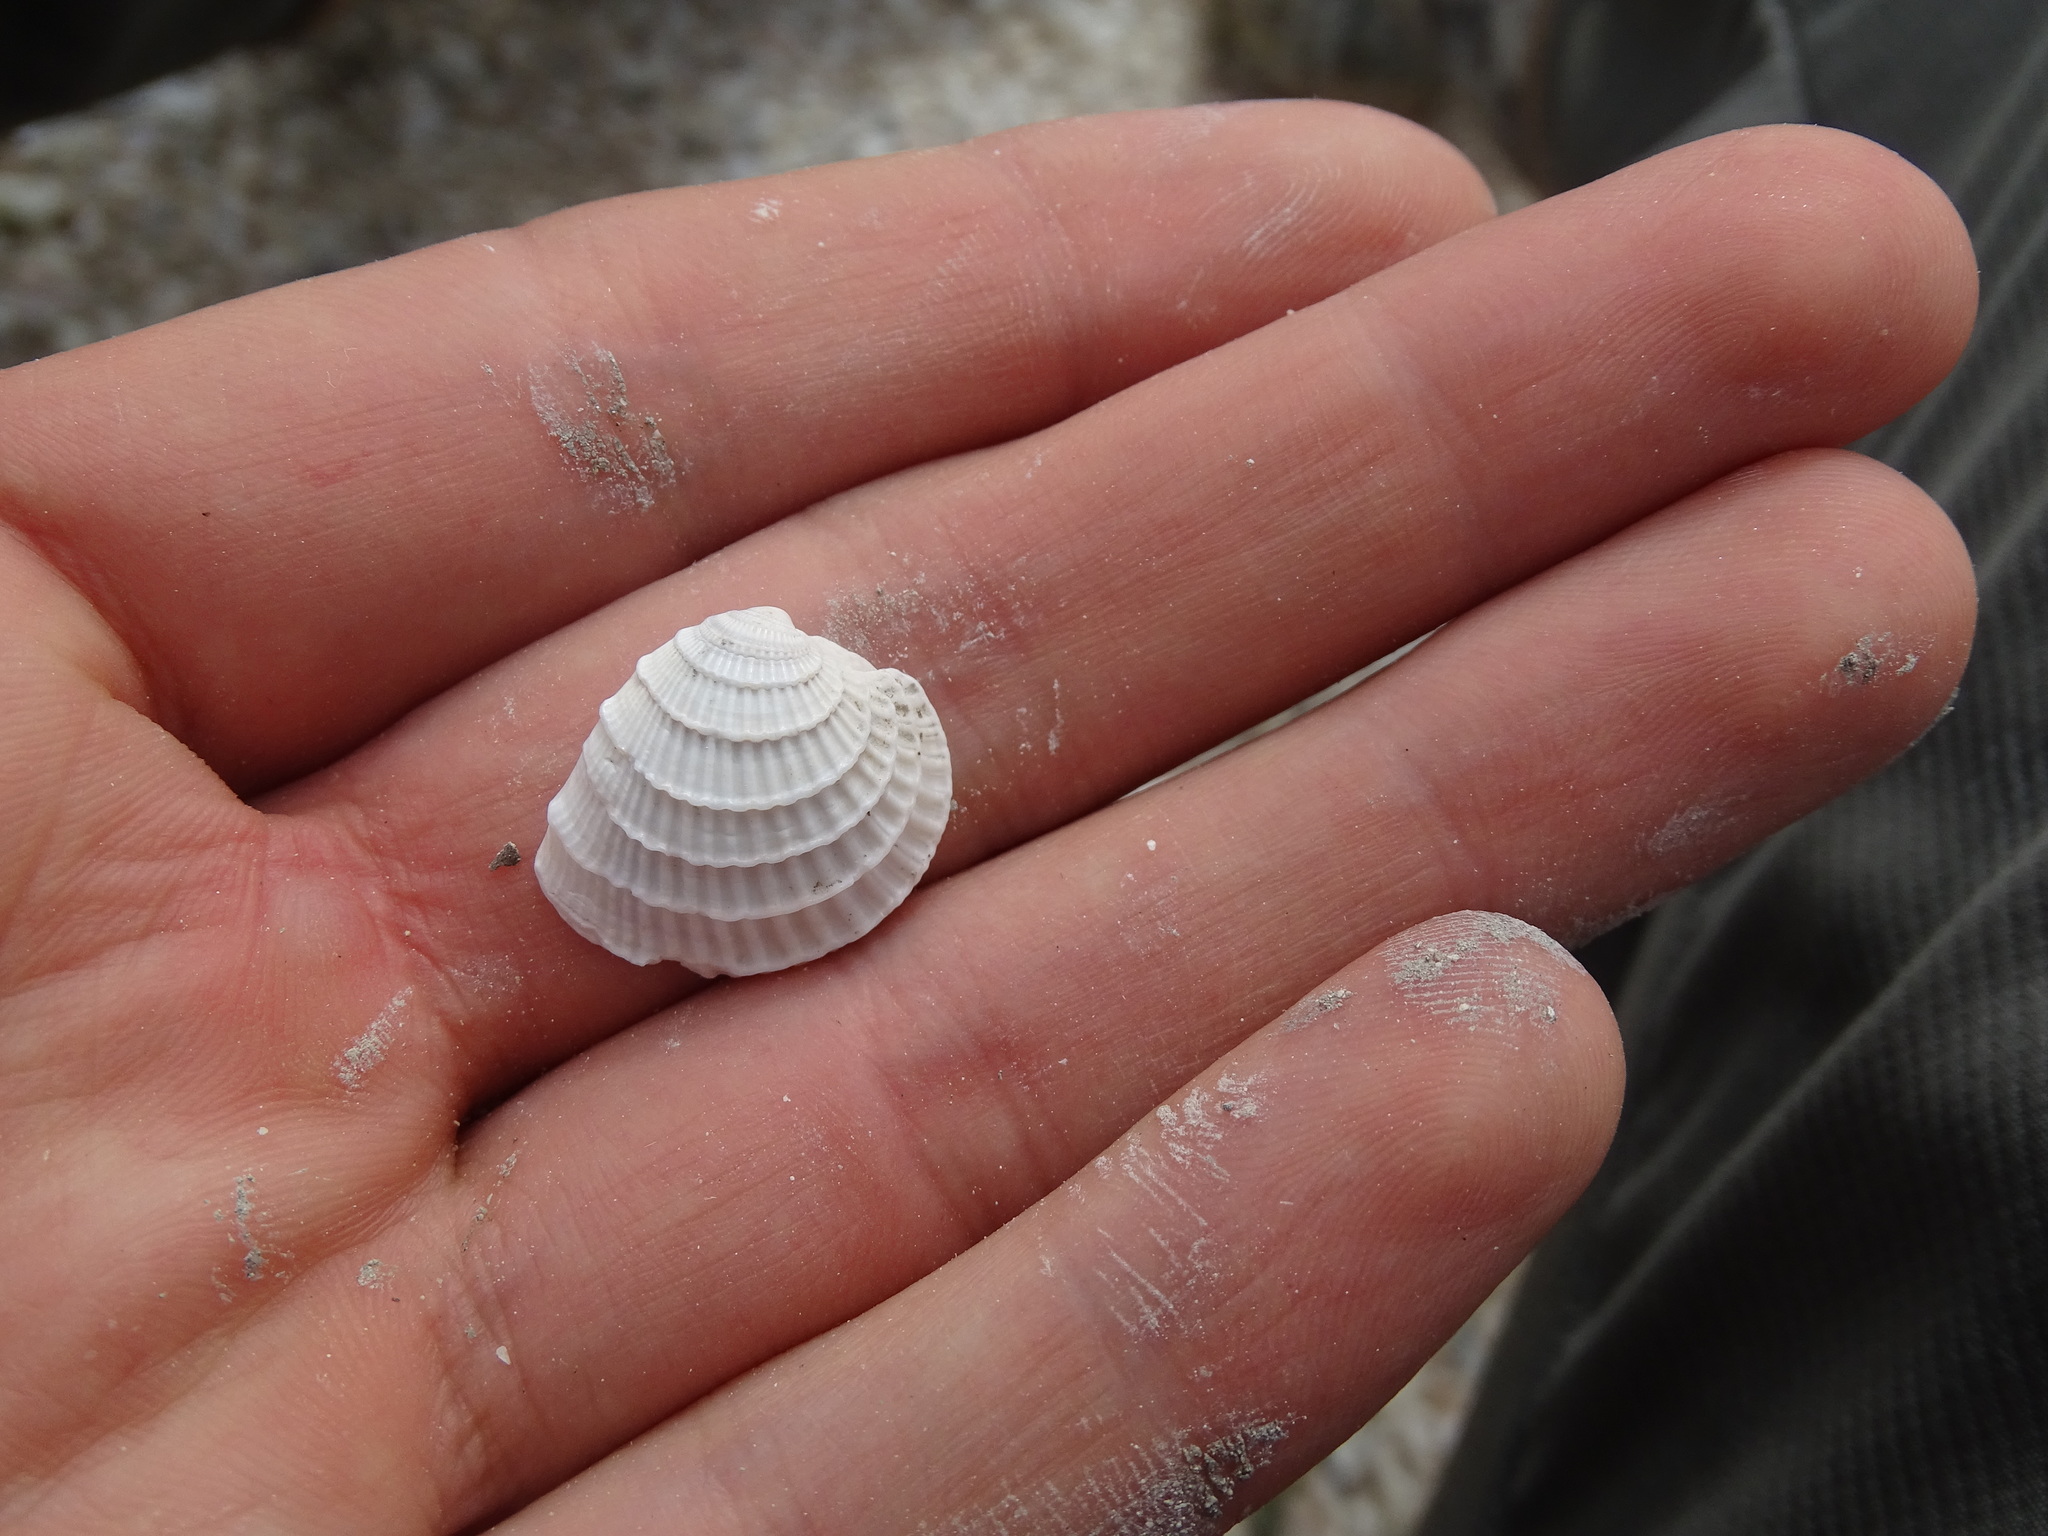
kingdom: Animalia
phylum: Mollusca
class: Bivalvia
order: Venerida
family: Veneridae
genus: Chione
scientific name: Chione elevata
